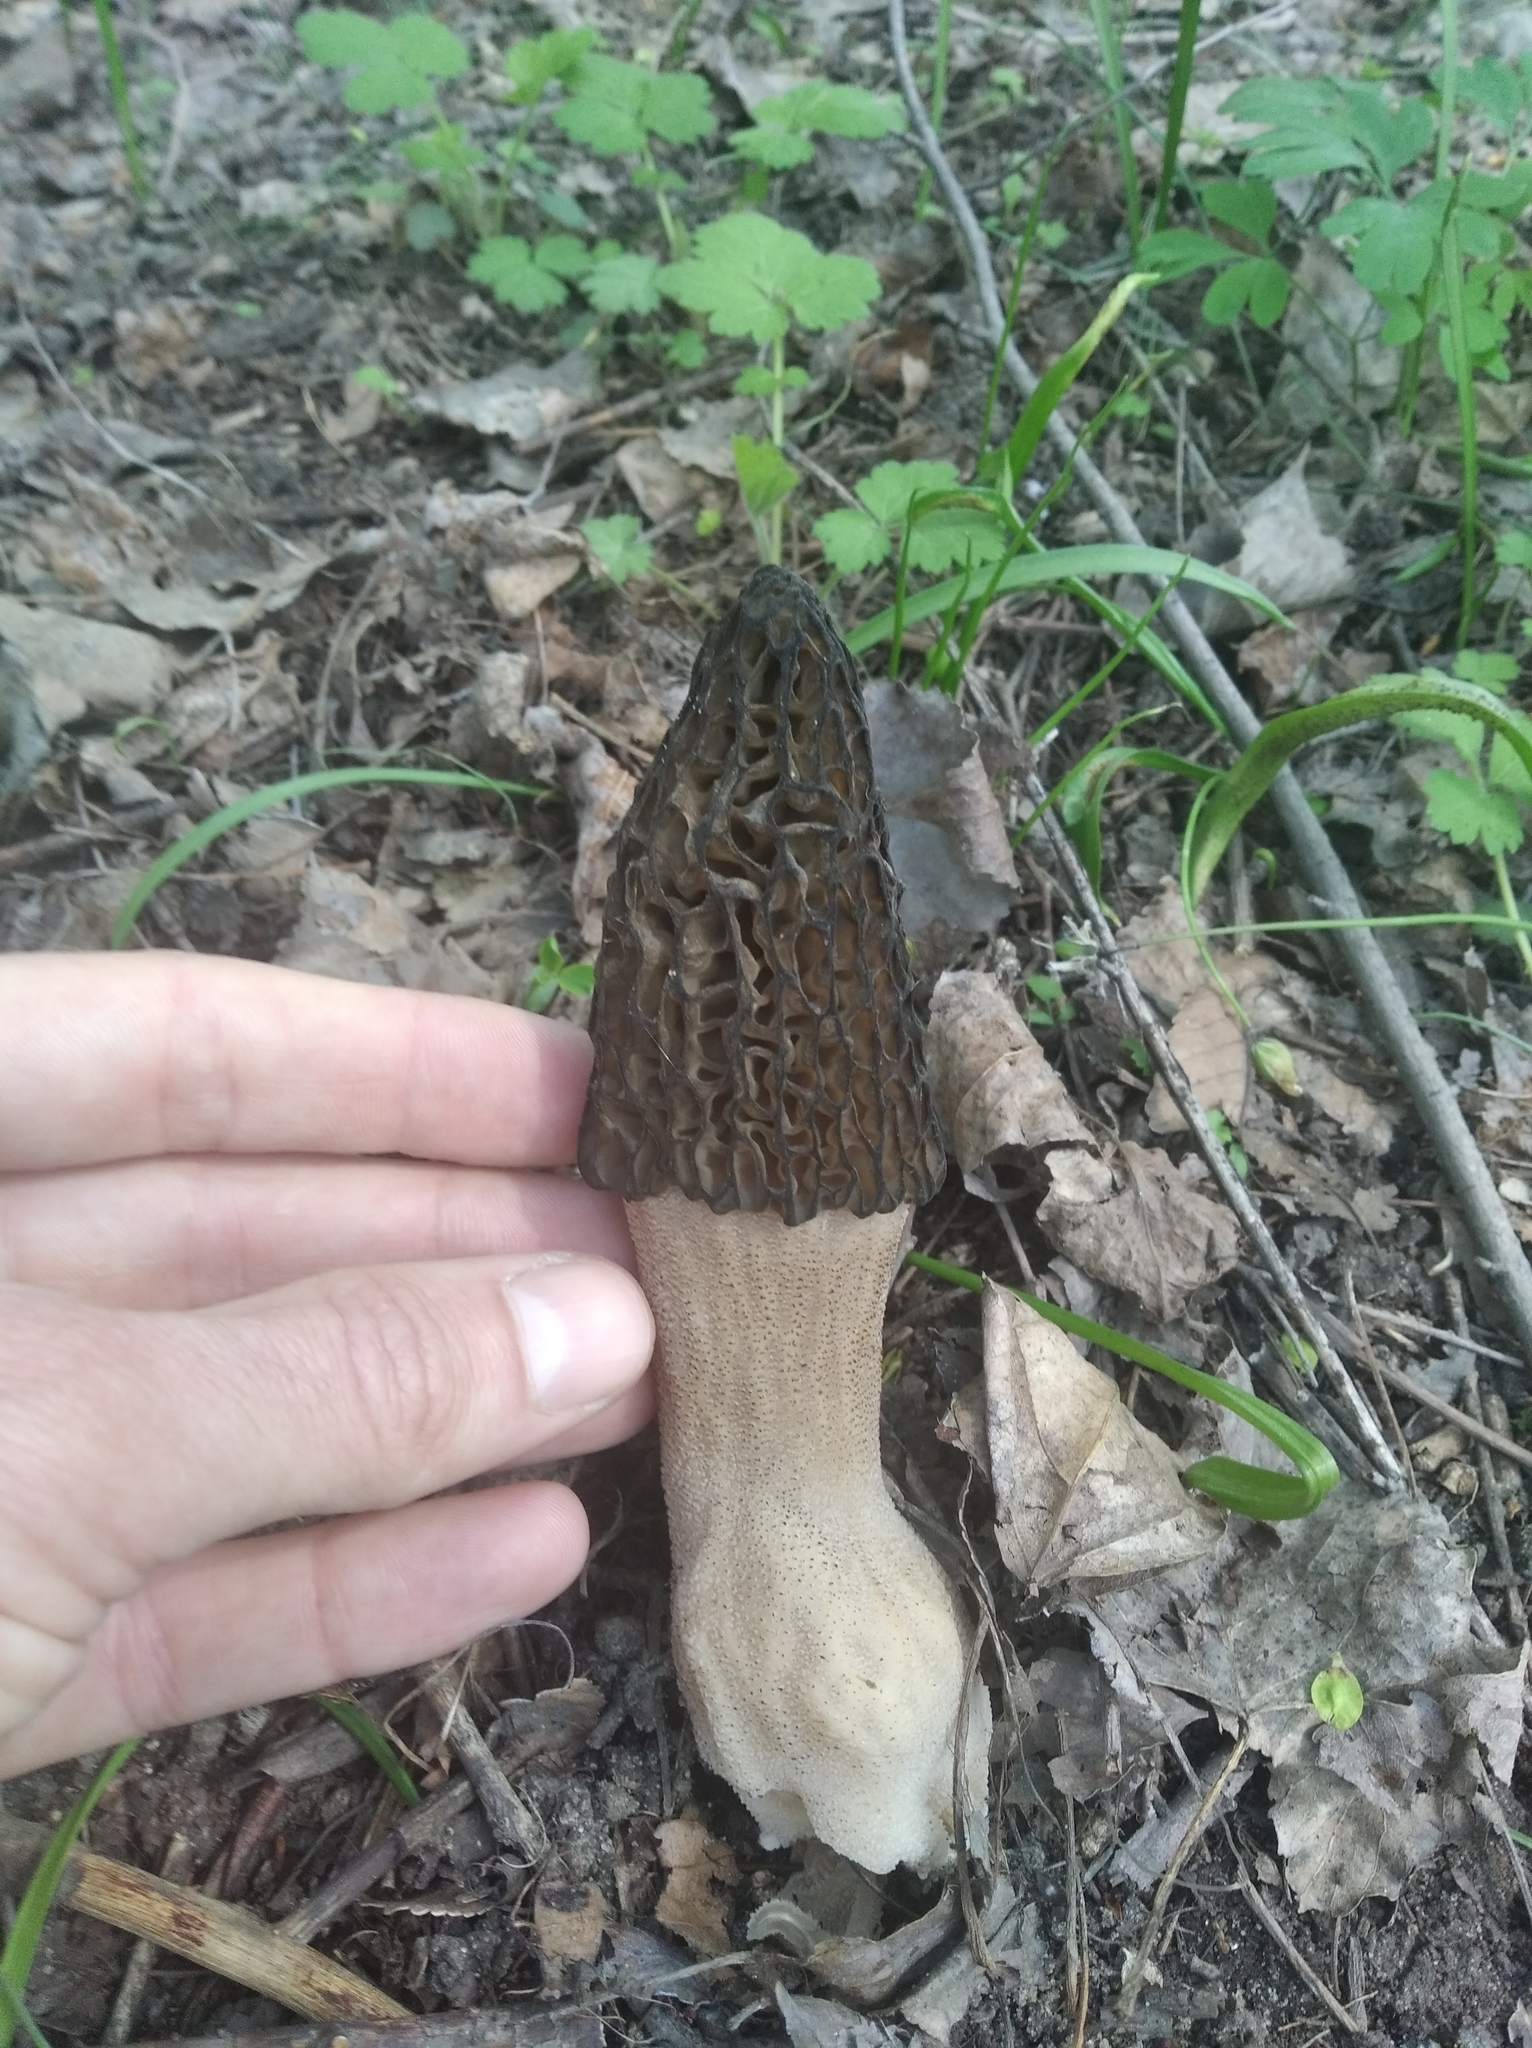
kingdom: Fungi
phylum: Ascomycota
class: Pezizomycetes
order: Pezizales
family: Morchellaceae
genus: Morchella
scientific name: Morchella
